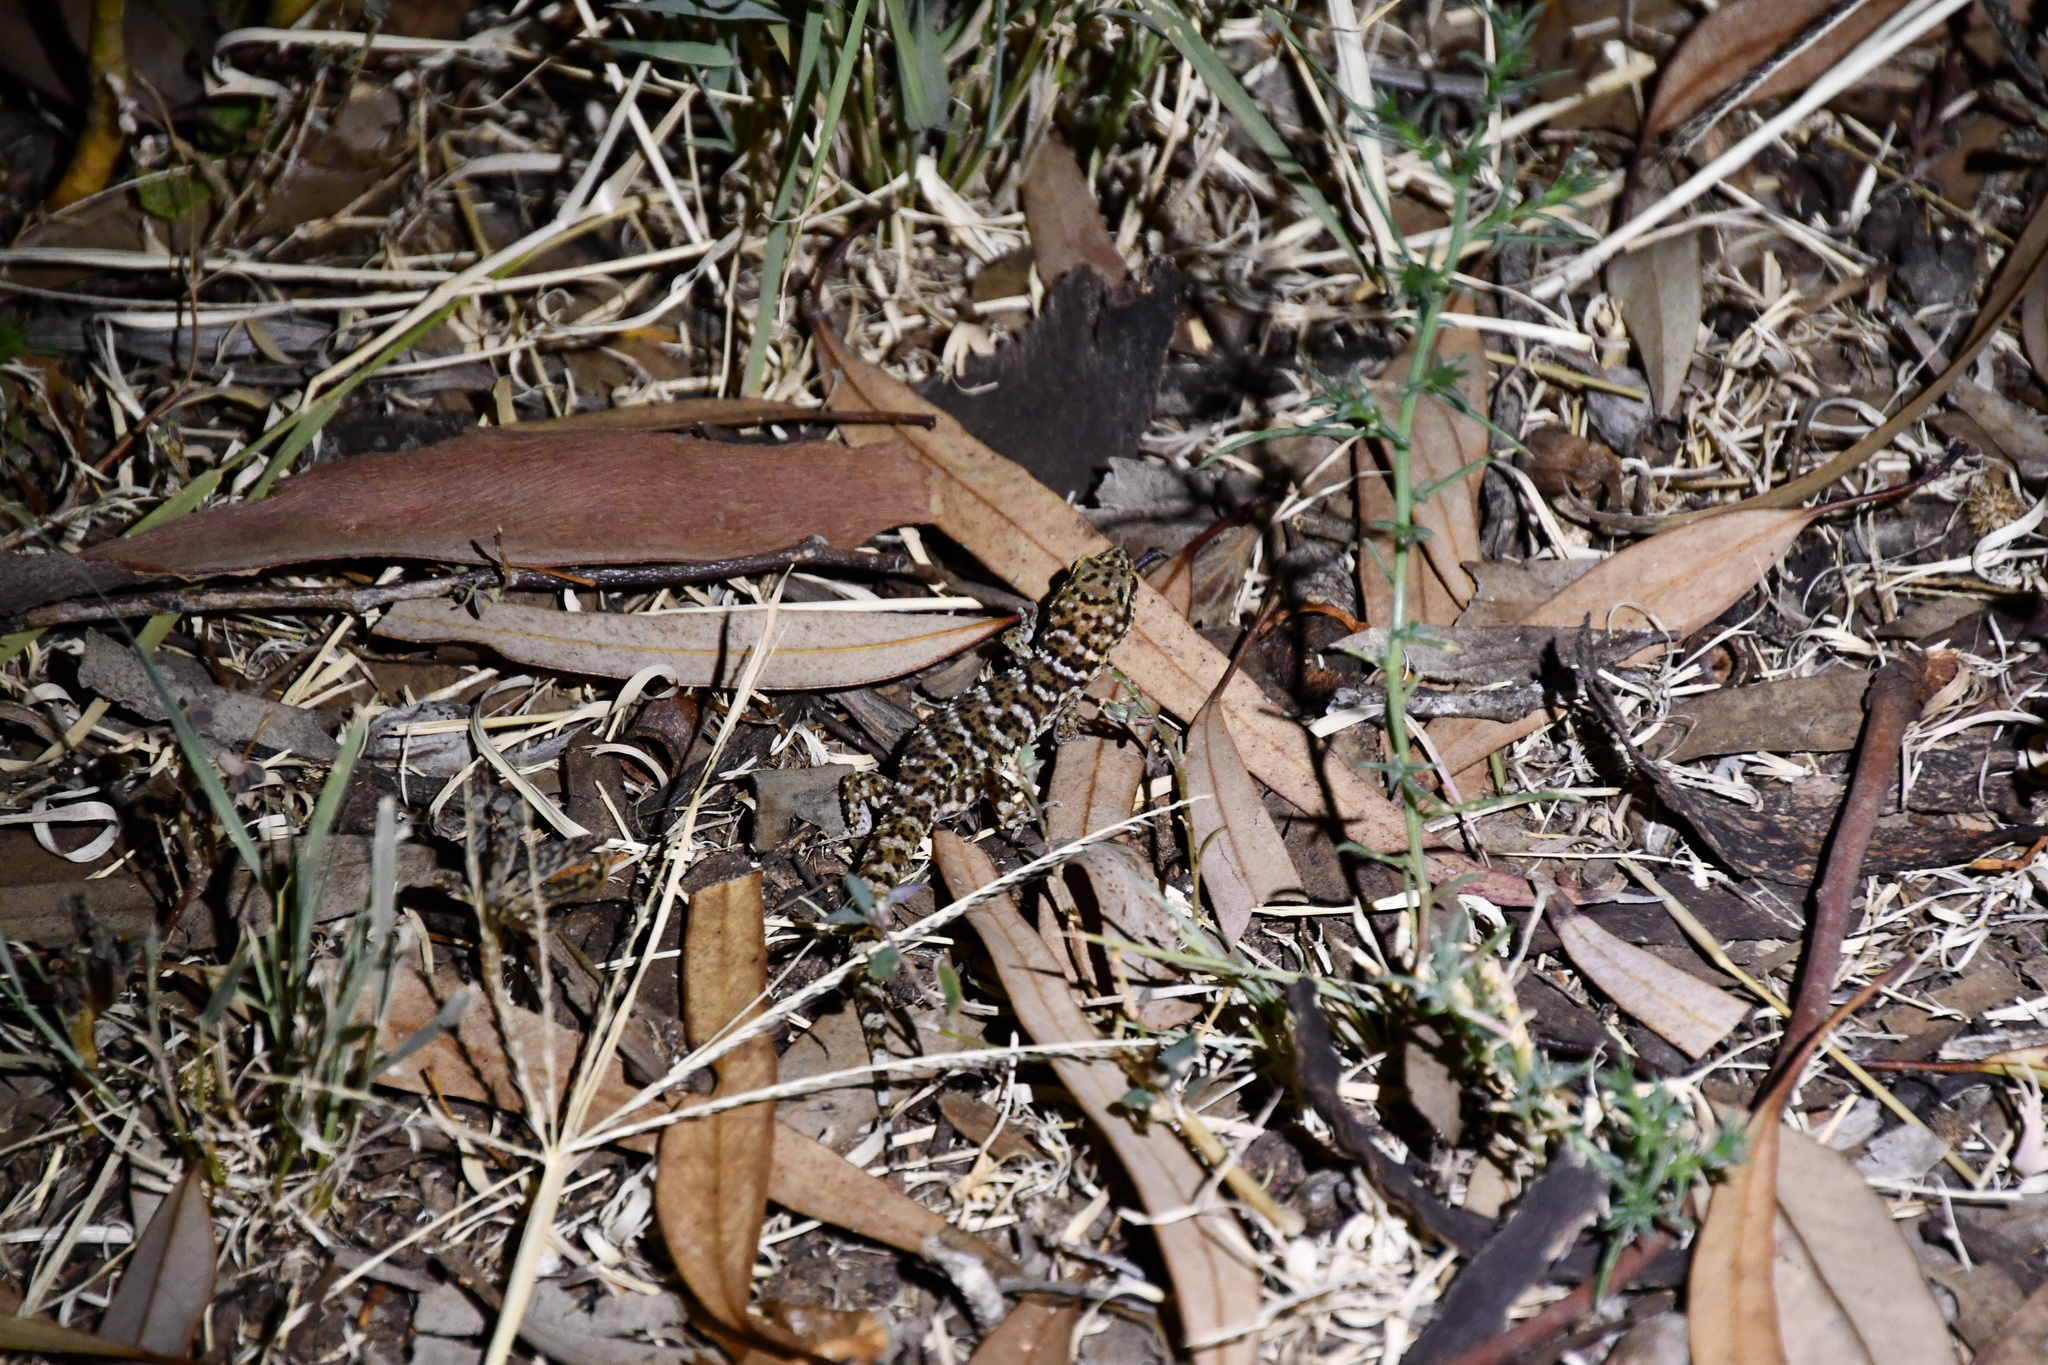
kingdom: Animalia
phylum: Chordata
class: Squamata
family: Gekkonidae
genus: Heteronotia
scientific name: Heteronotia binoei
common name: Bynoe's gecko
